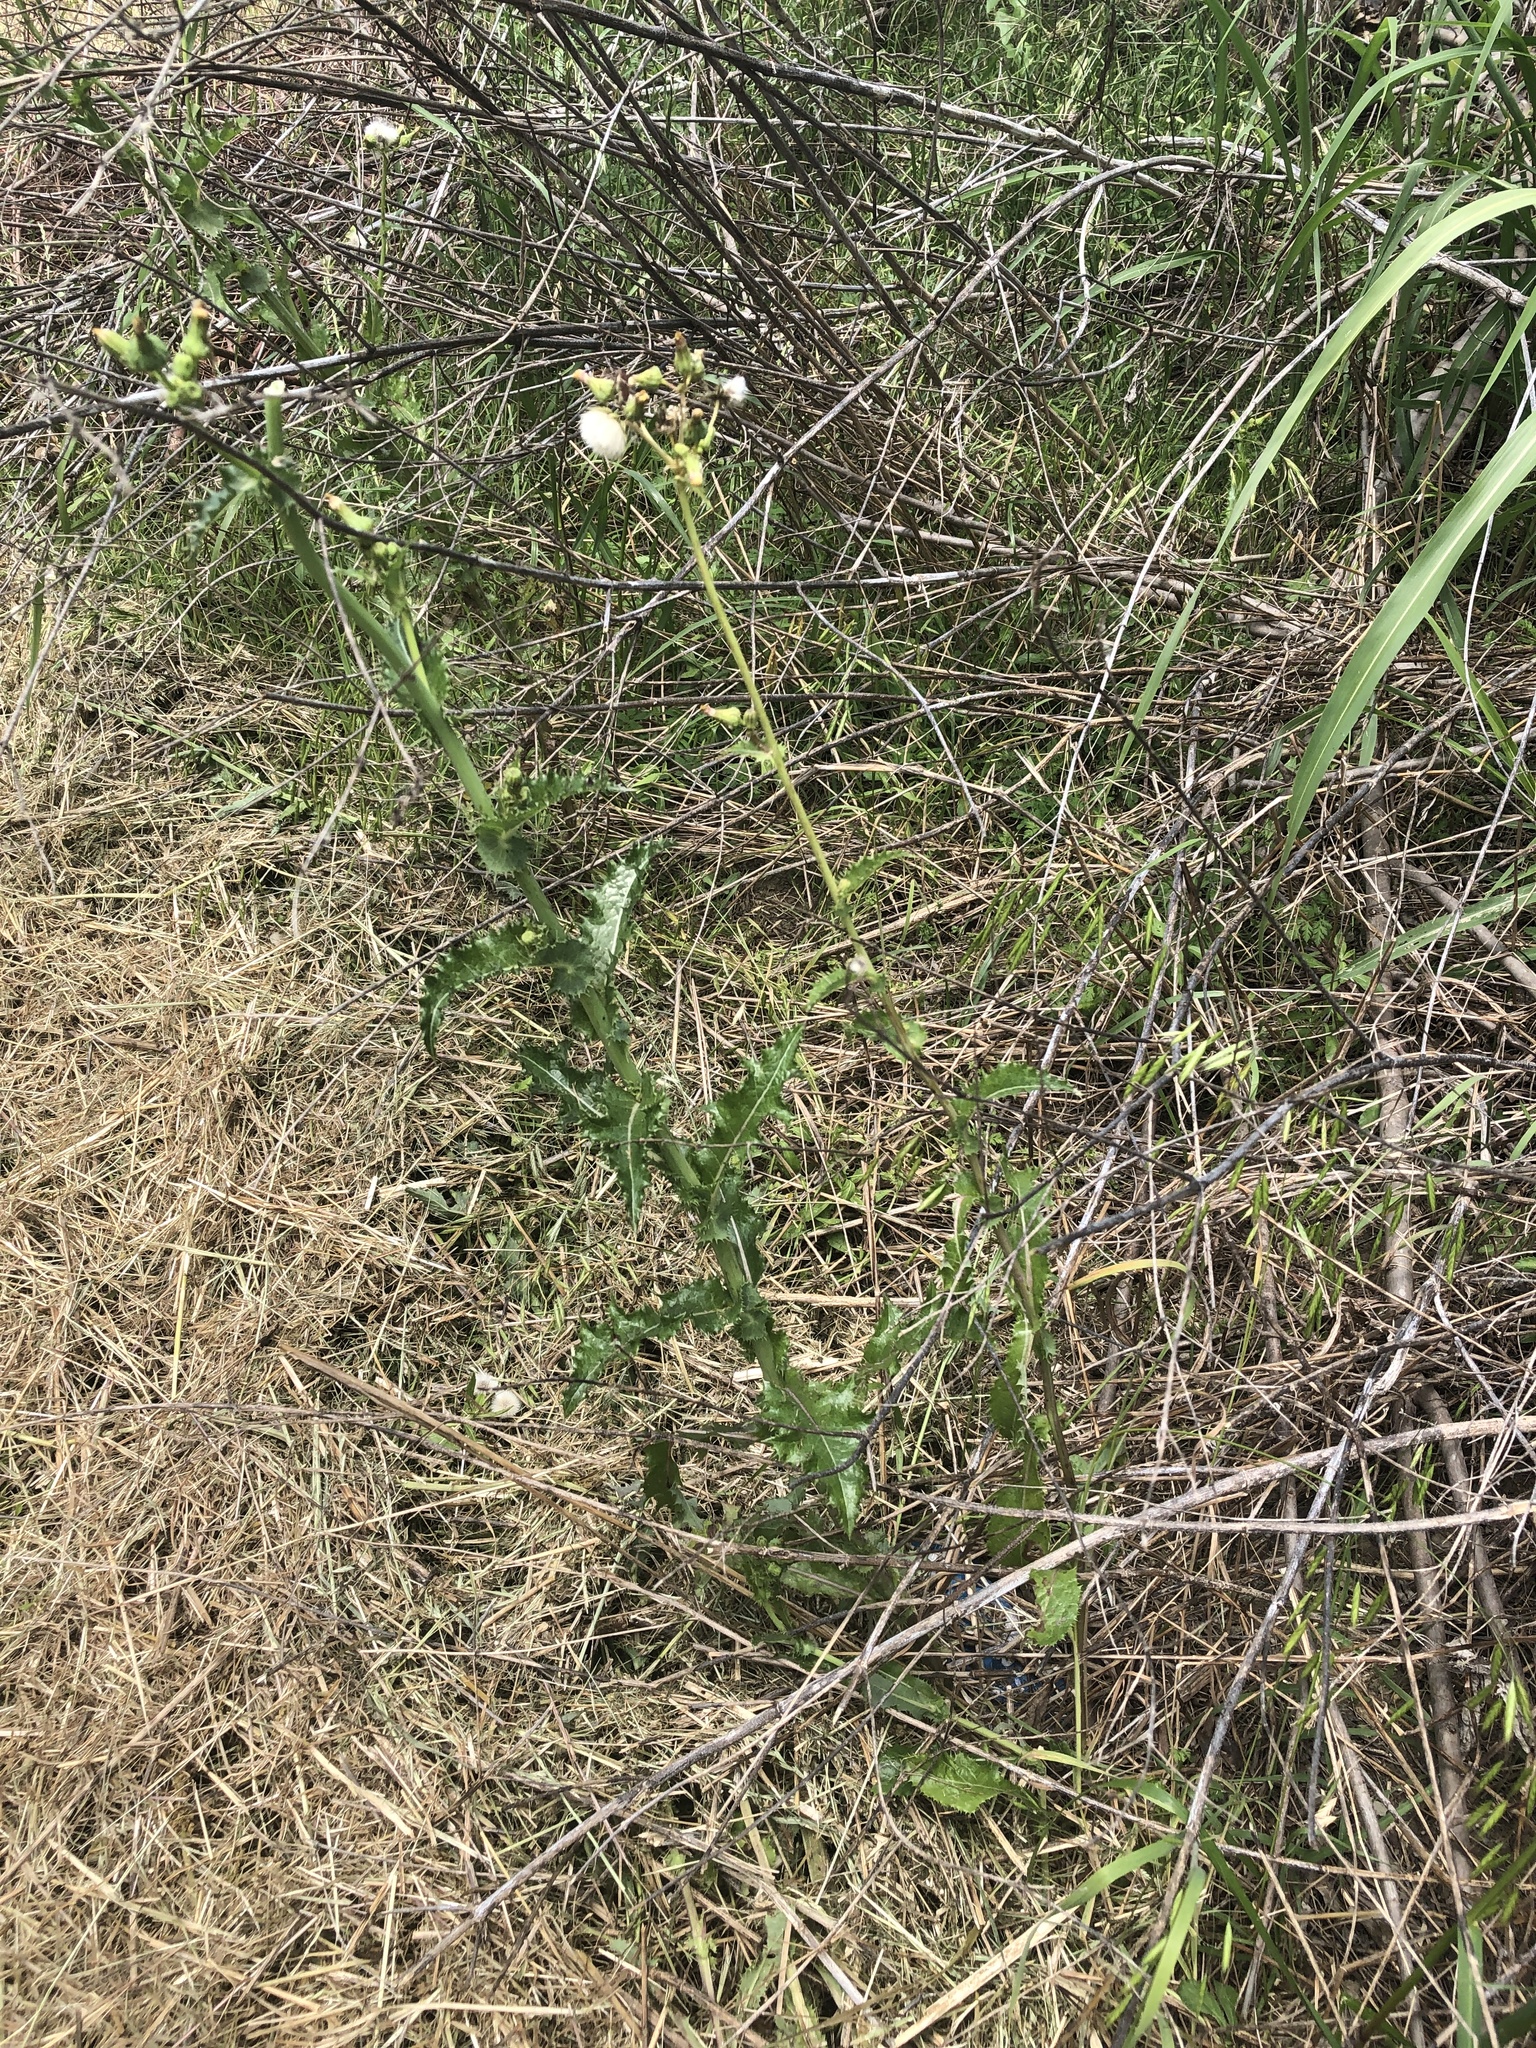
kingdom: Plantae
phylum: Tracheophyta
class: Magnoliopsida
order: Asterales
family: Asteraceae
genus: Sonchus
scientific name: Sonchus asper
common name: Prickly sow-thistle
